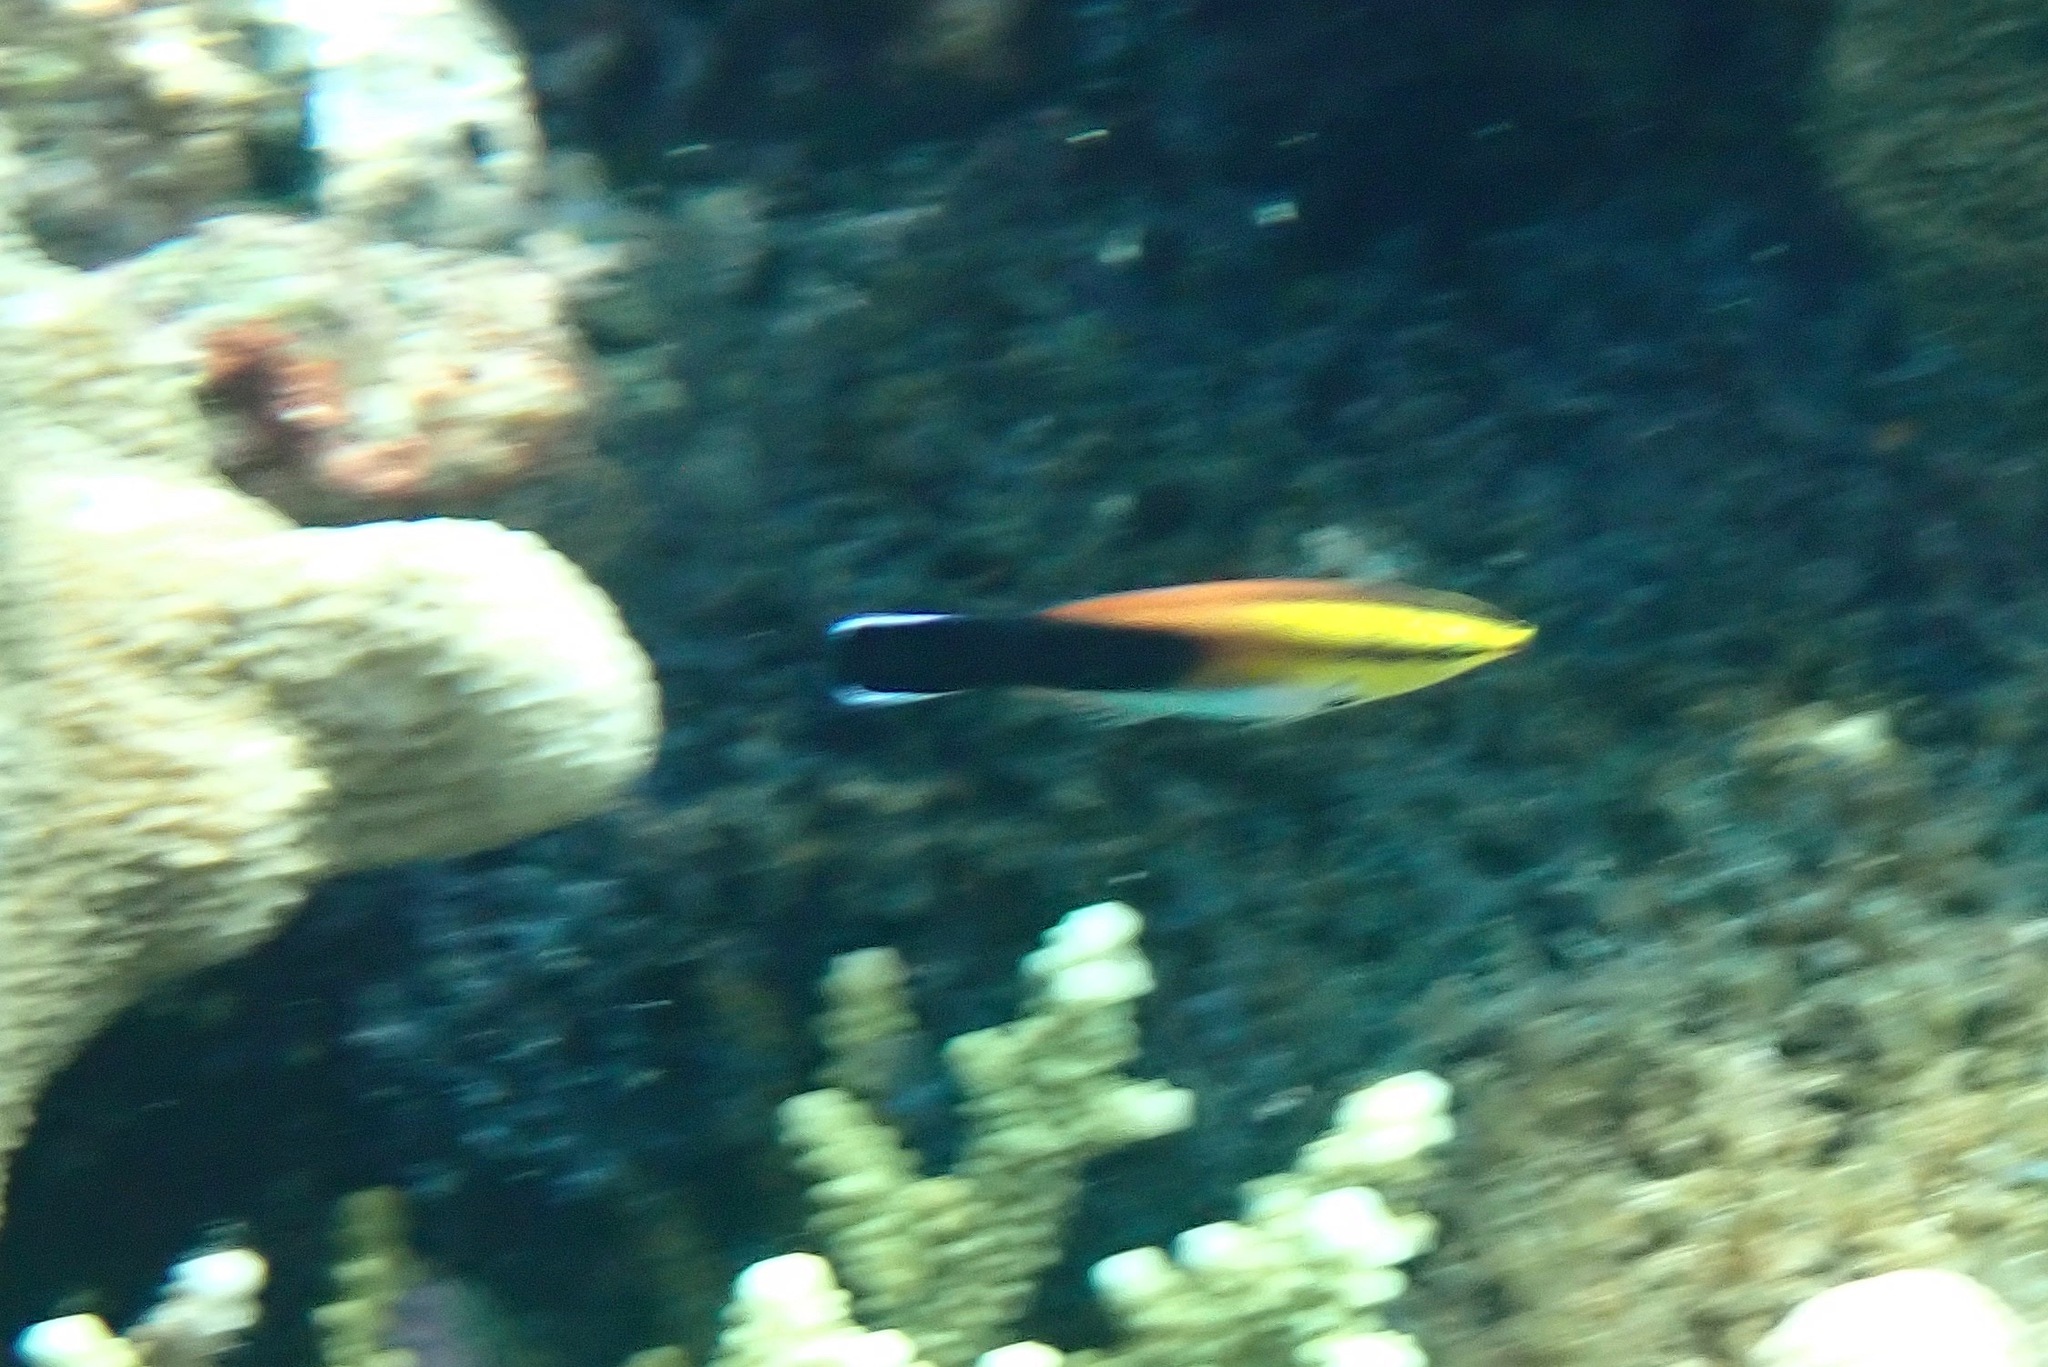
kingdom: Animalia
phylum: Chordata
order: Perciformes
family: Labridae
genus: Labroides
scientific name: Labroides pectoralis
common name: Black-spot cleaner wrasse
